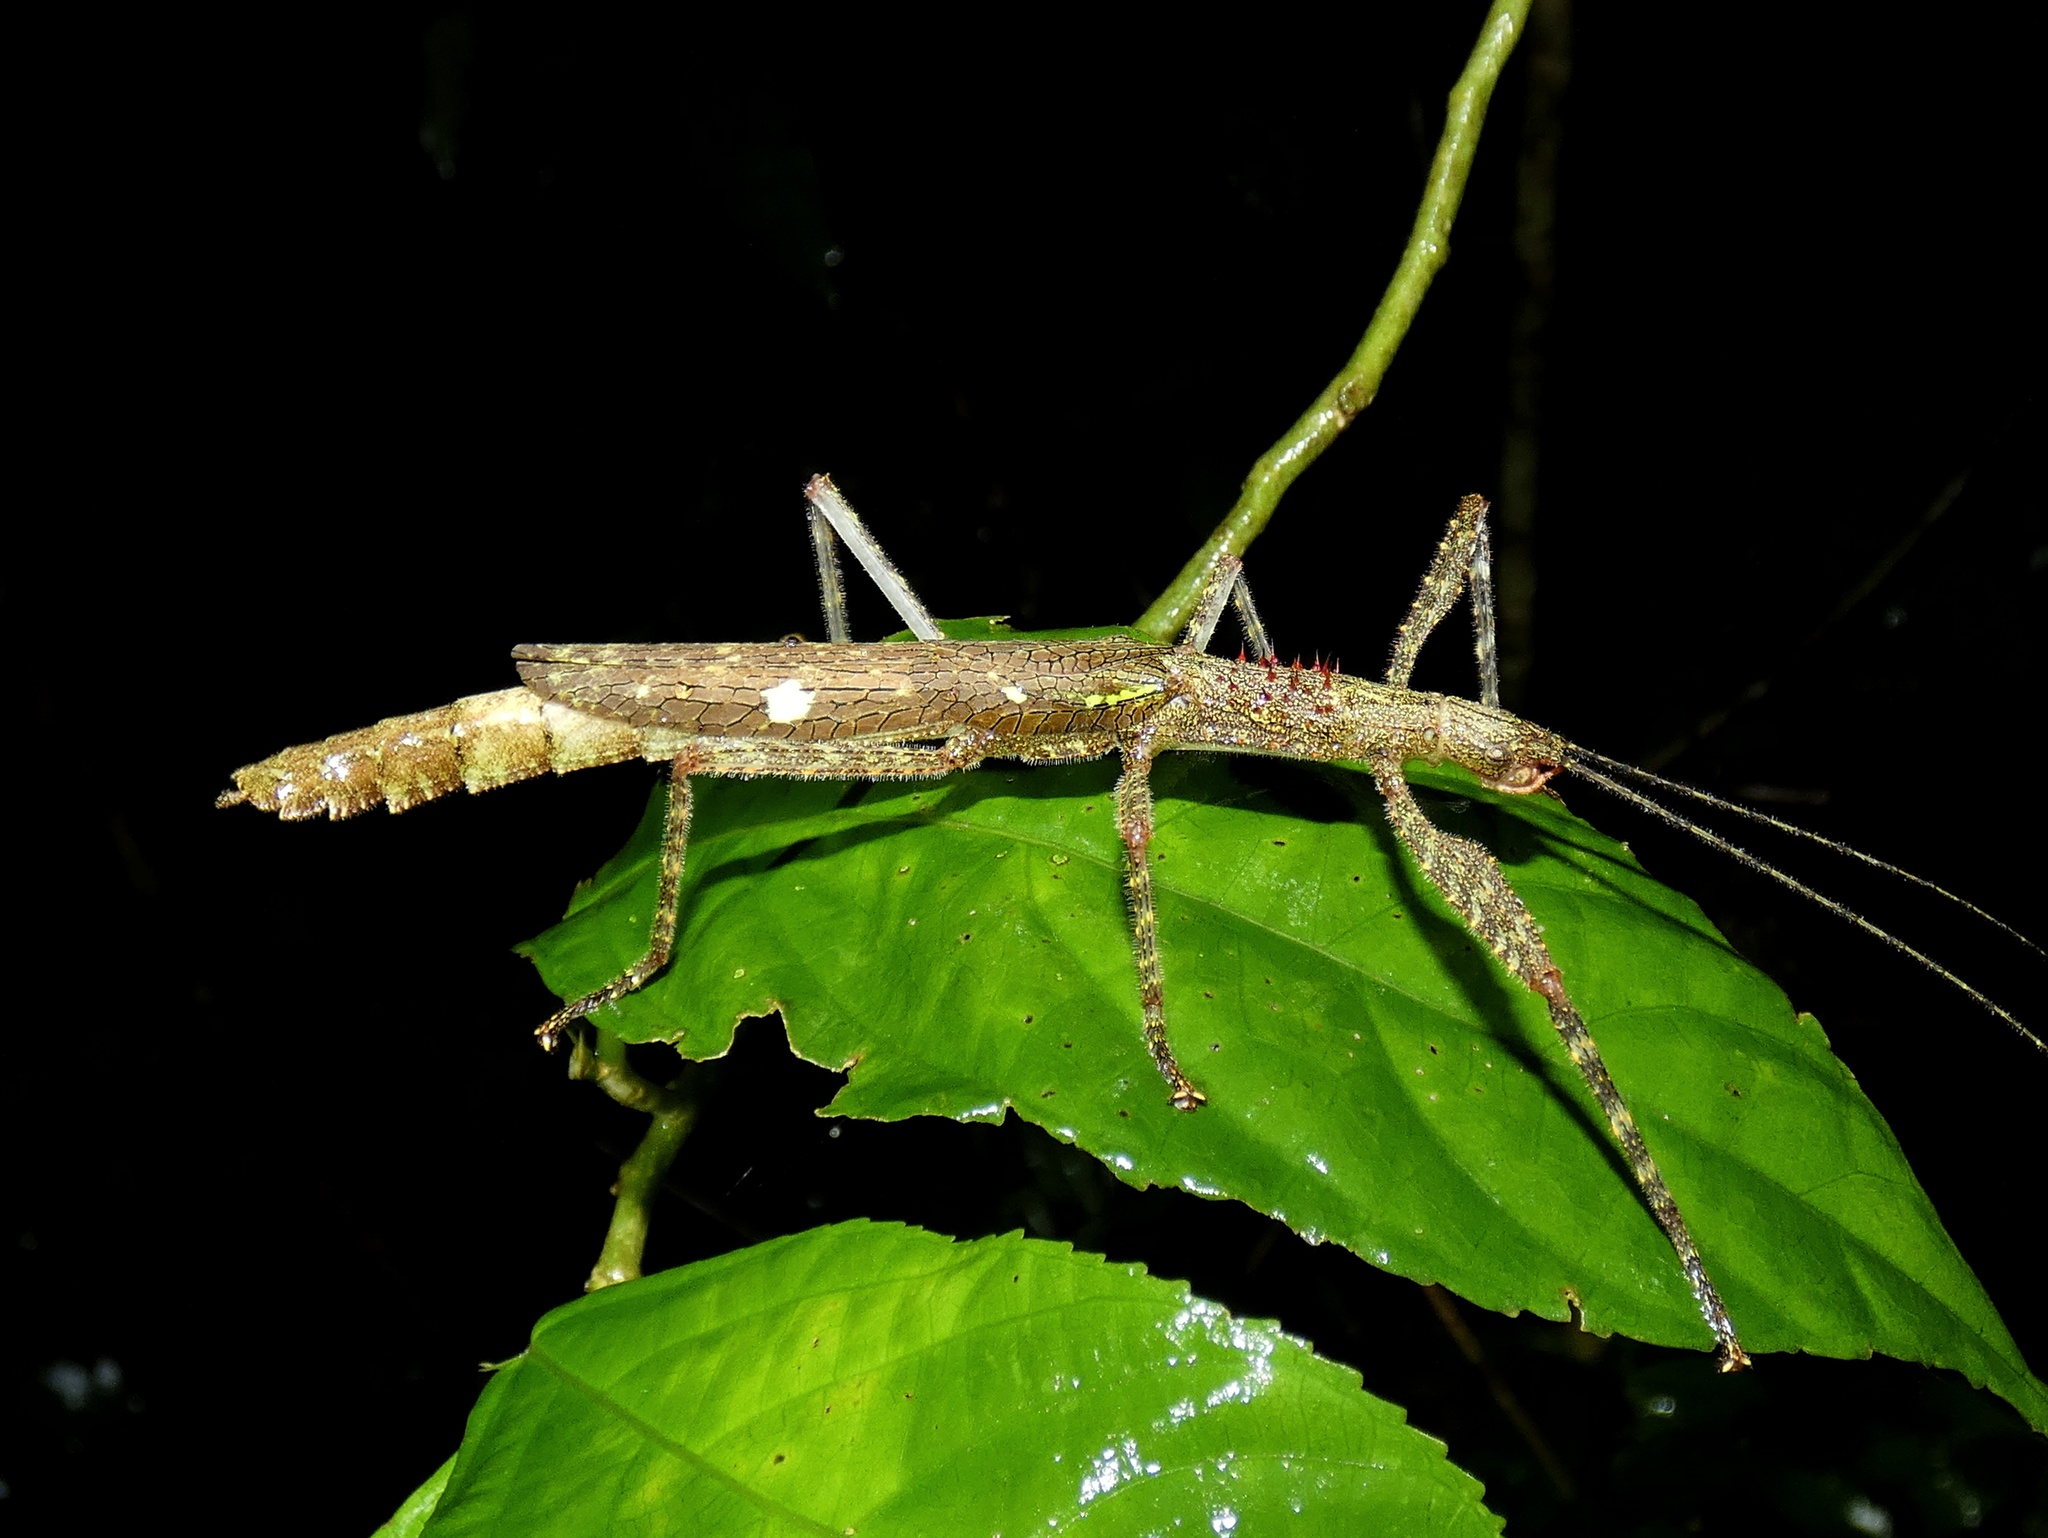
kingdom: Animalia
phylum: Arthropoda
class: Insecta
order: Phasmida
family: Pseudophasmatidae
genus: Metriophasma
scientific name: Metriophasma myrsilus
